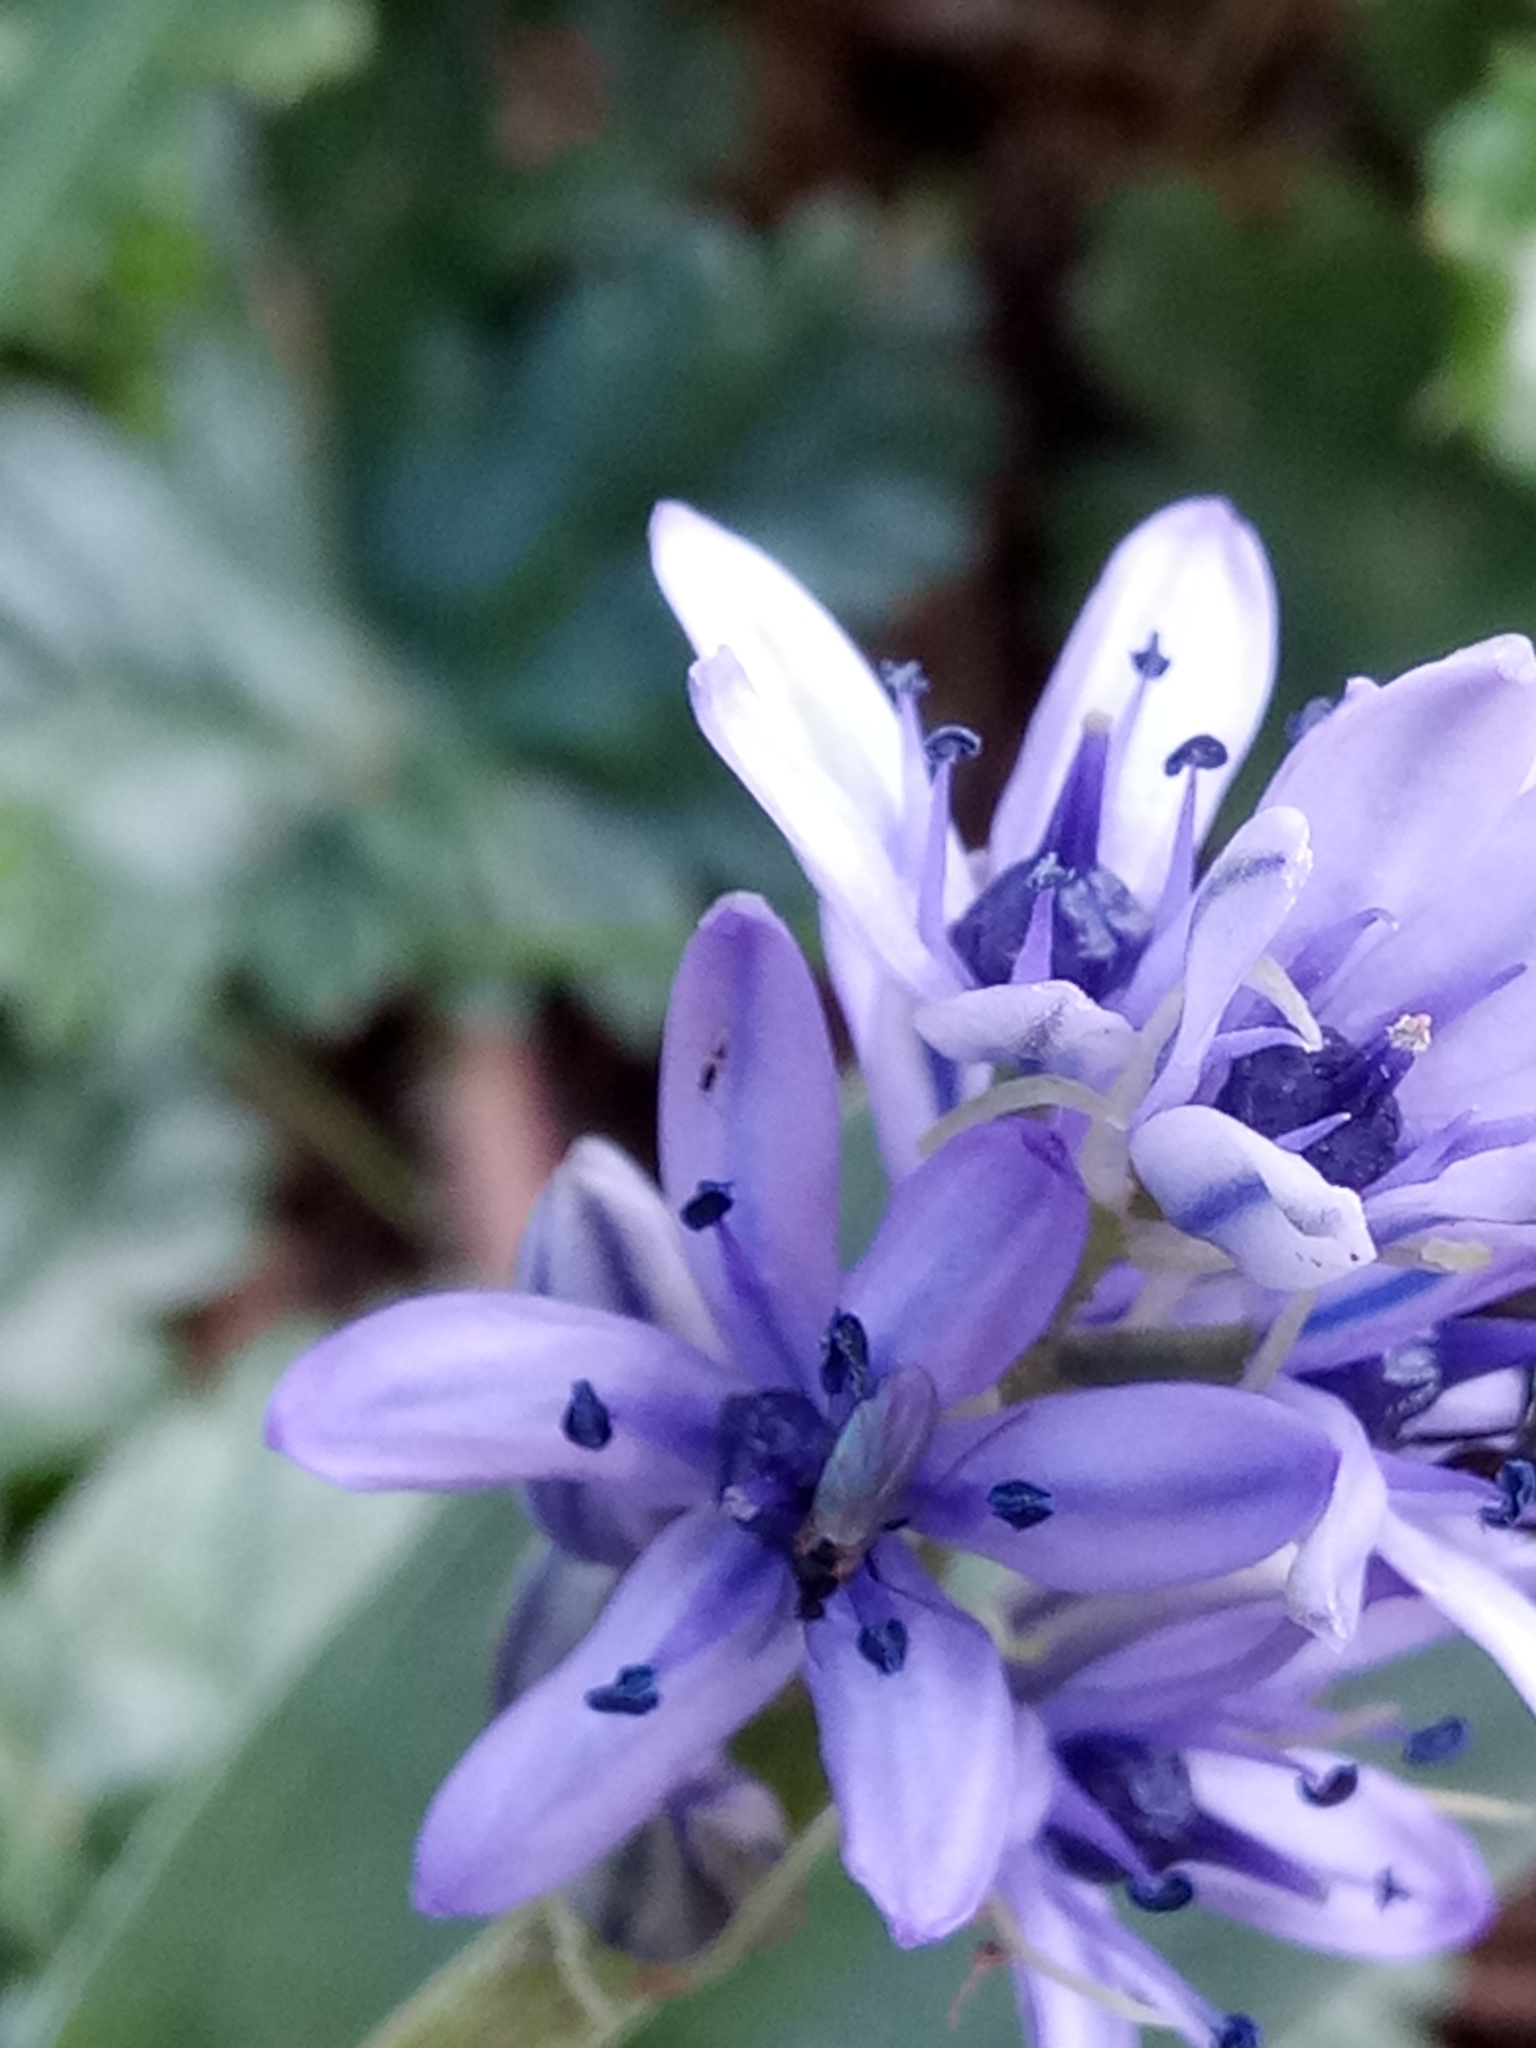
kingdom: Plantae
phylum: Tracheophyta
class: Liliopsida
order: Asparagales
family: Asparagaceae
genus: Hyacinthoides
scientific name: Hyacinthoides lingulata
